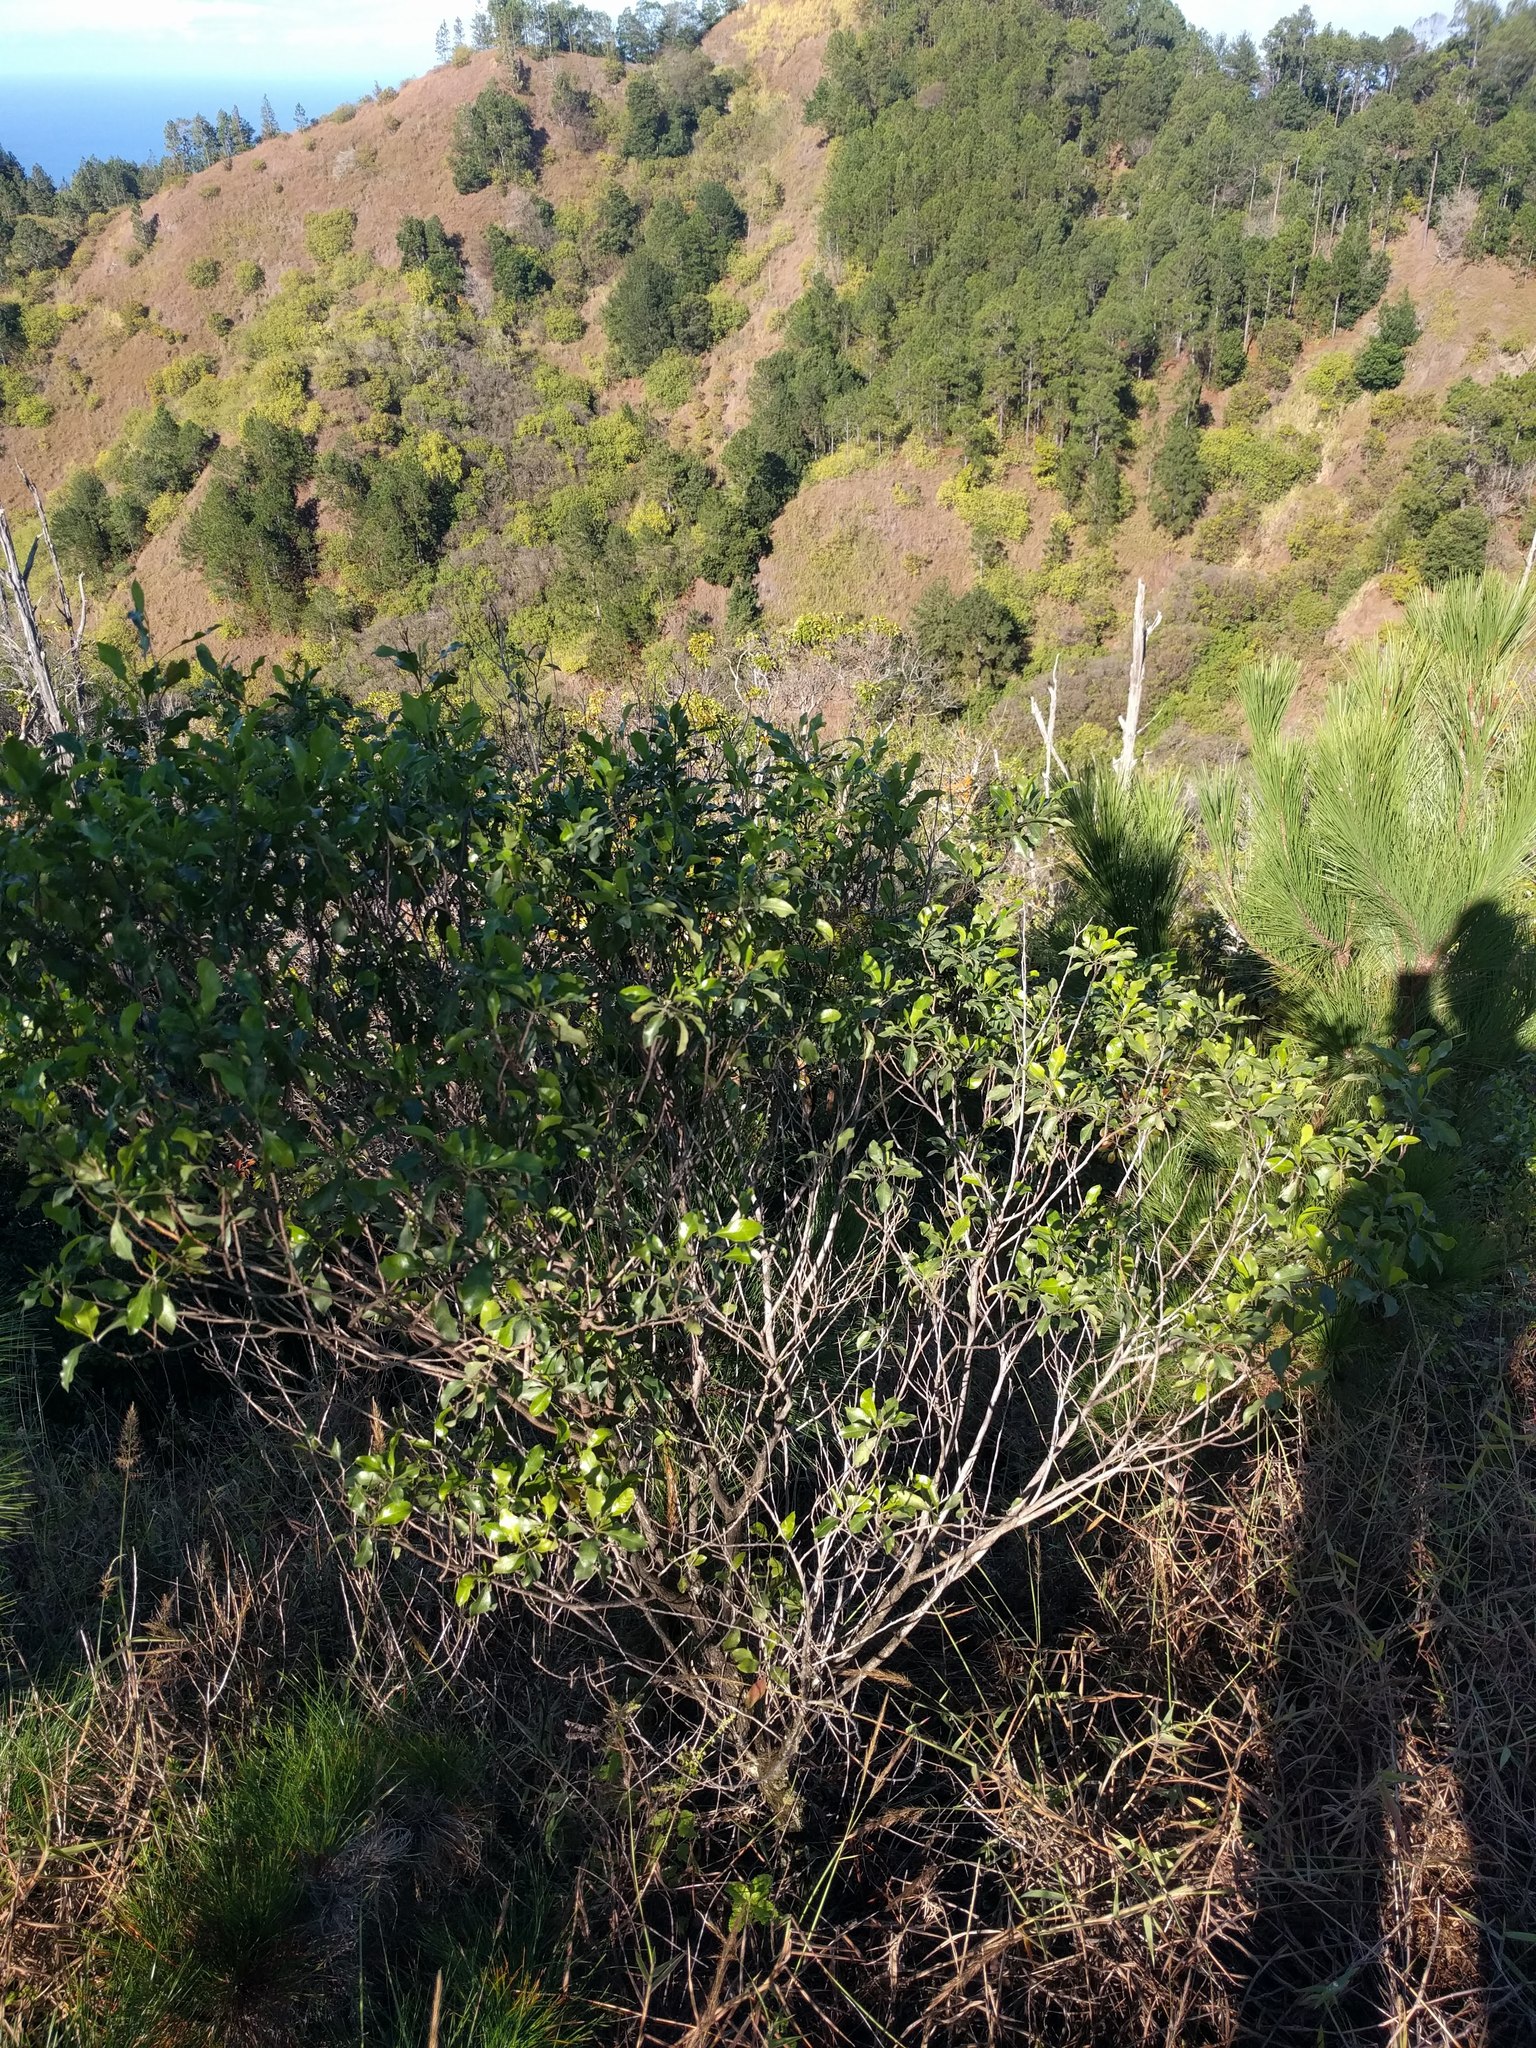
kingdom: Plantae
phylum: Tracheophyta
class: Magnoliopsida
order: Sapindales
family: Sapindaceae
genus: Dodonaea
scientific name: Dodonaea viscosa
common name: Hopbush
